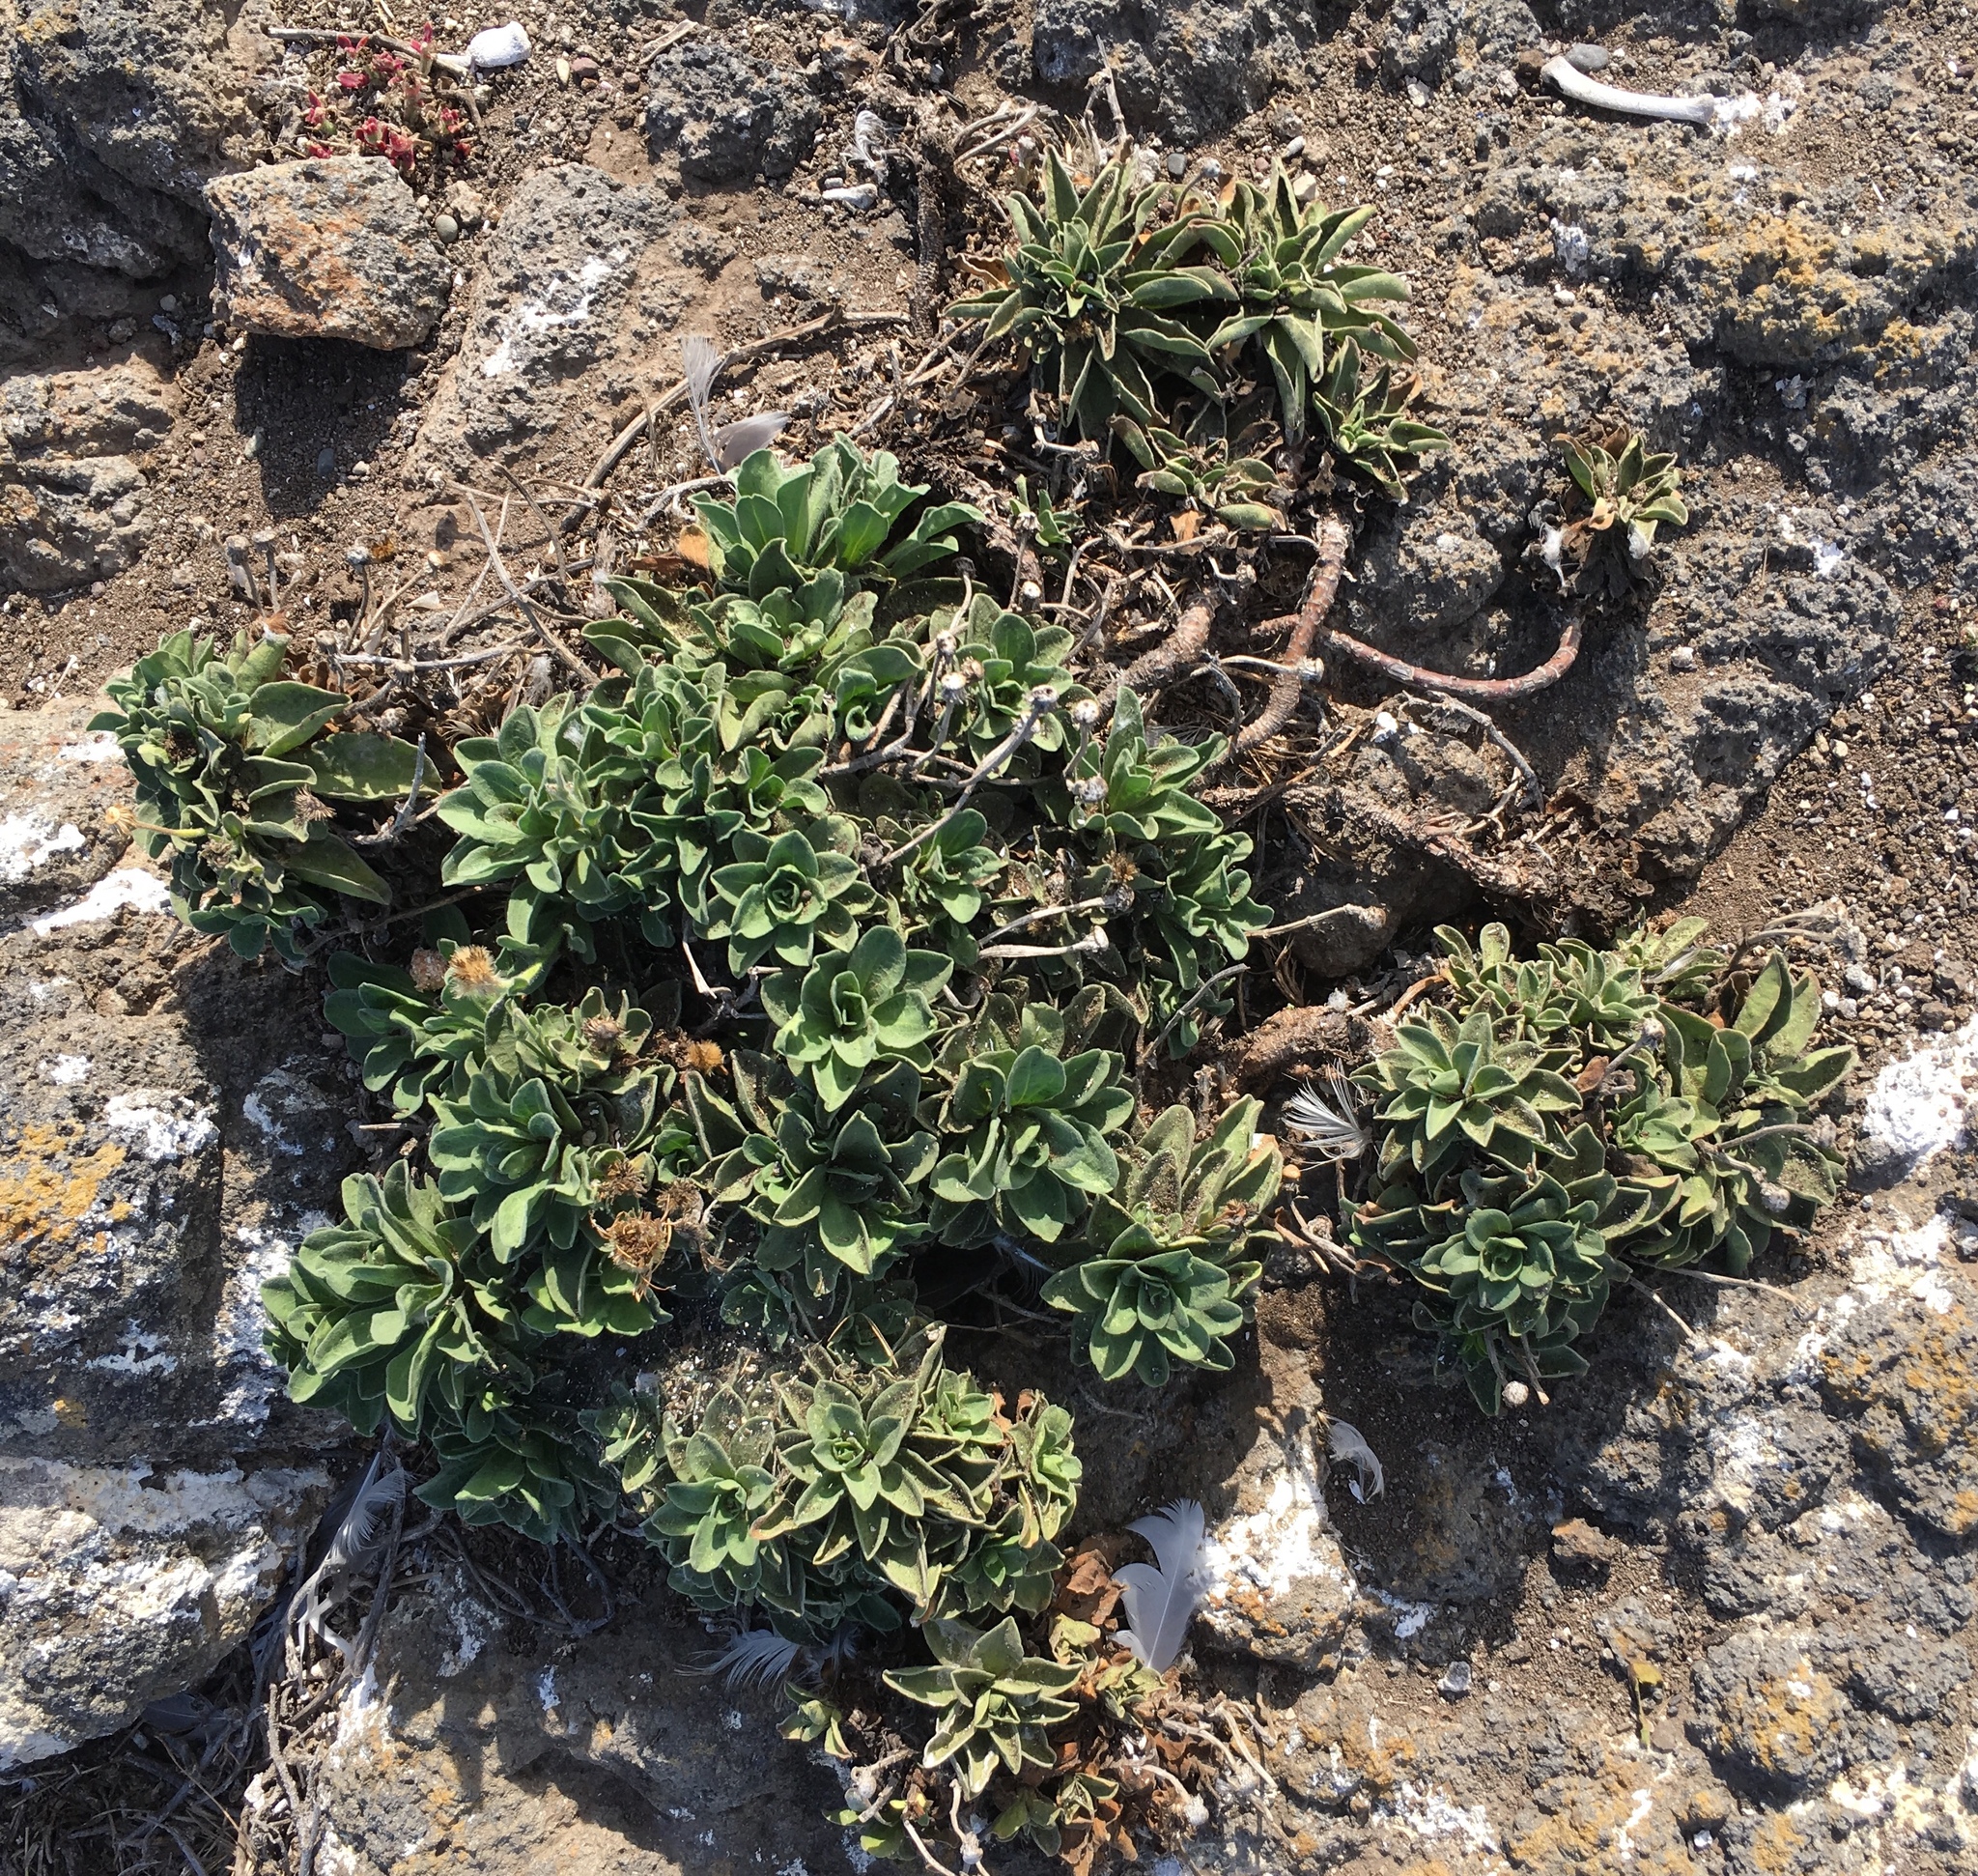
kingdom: Plantae
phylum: Tracheophyta
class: Magnoliopsida
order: Asterales
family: Asteraceae
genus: Erigeron
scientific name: Erigeron glaucus
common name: Seaside daisy
